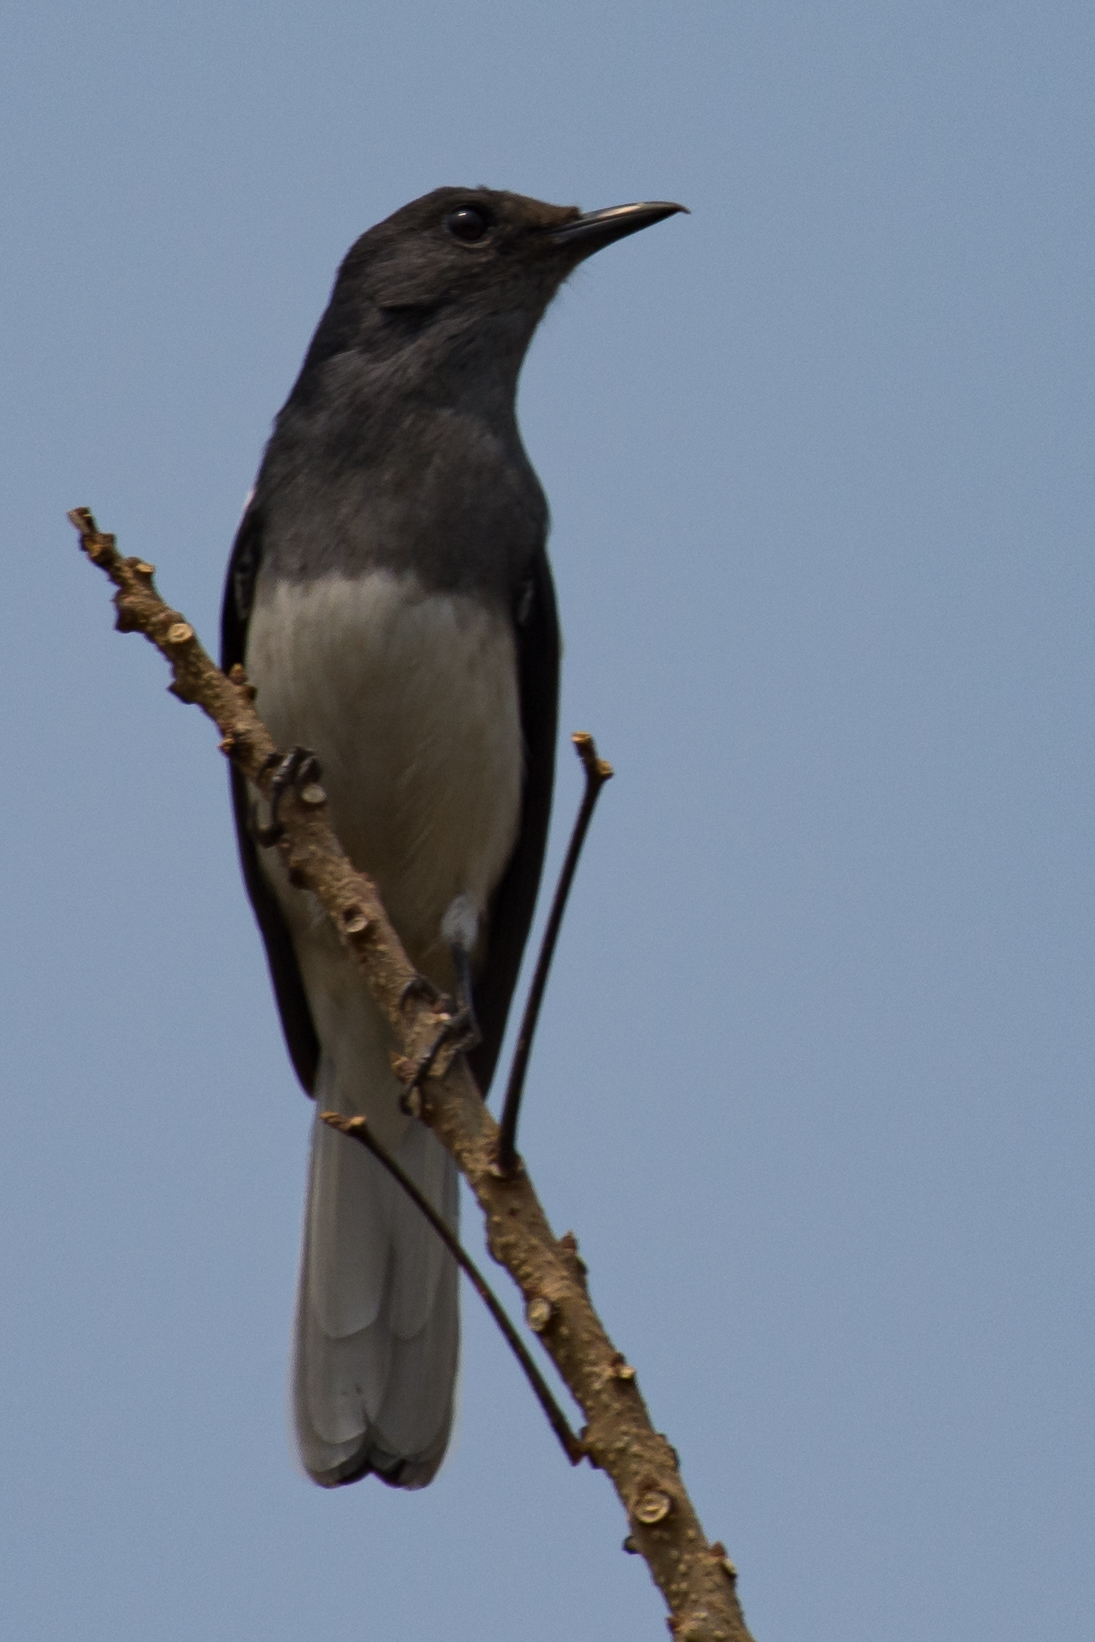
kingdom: Animalia
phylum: Chordata
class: Aves
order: Passeriformes
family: Muscicapidae
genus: Copsychus
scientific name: Copsychus saularis
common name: Oriental magpie-robin
